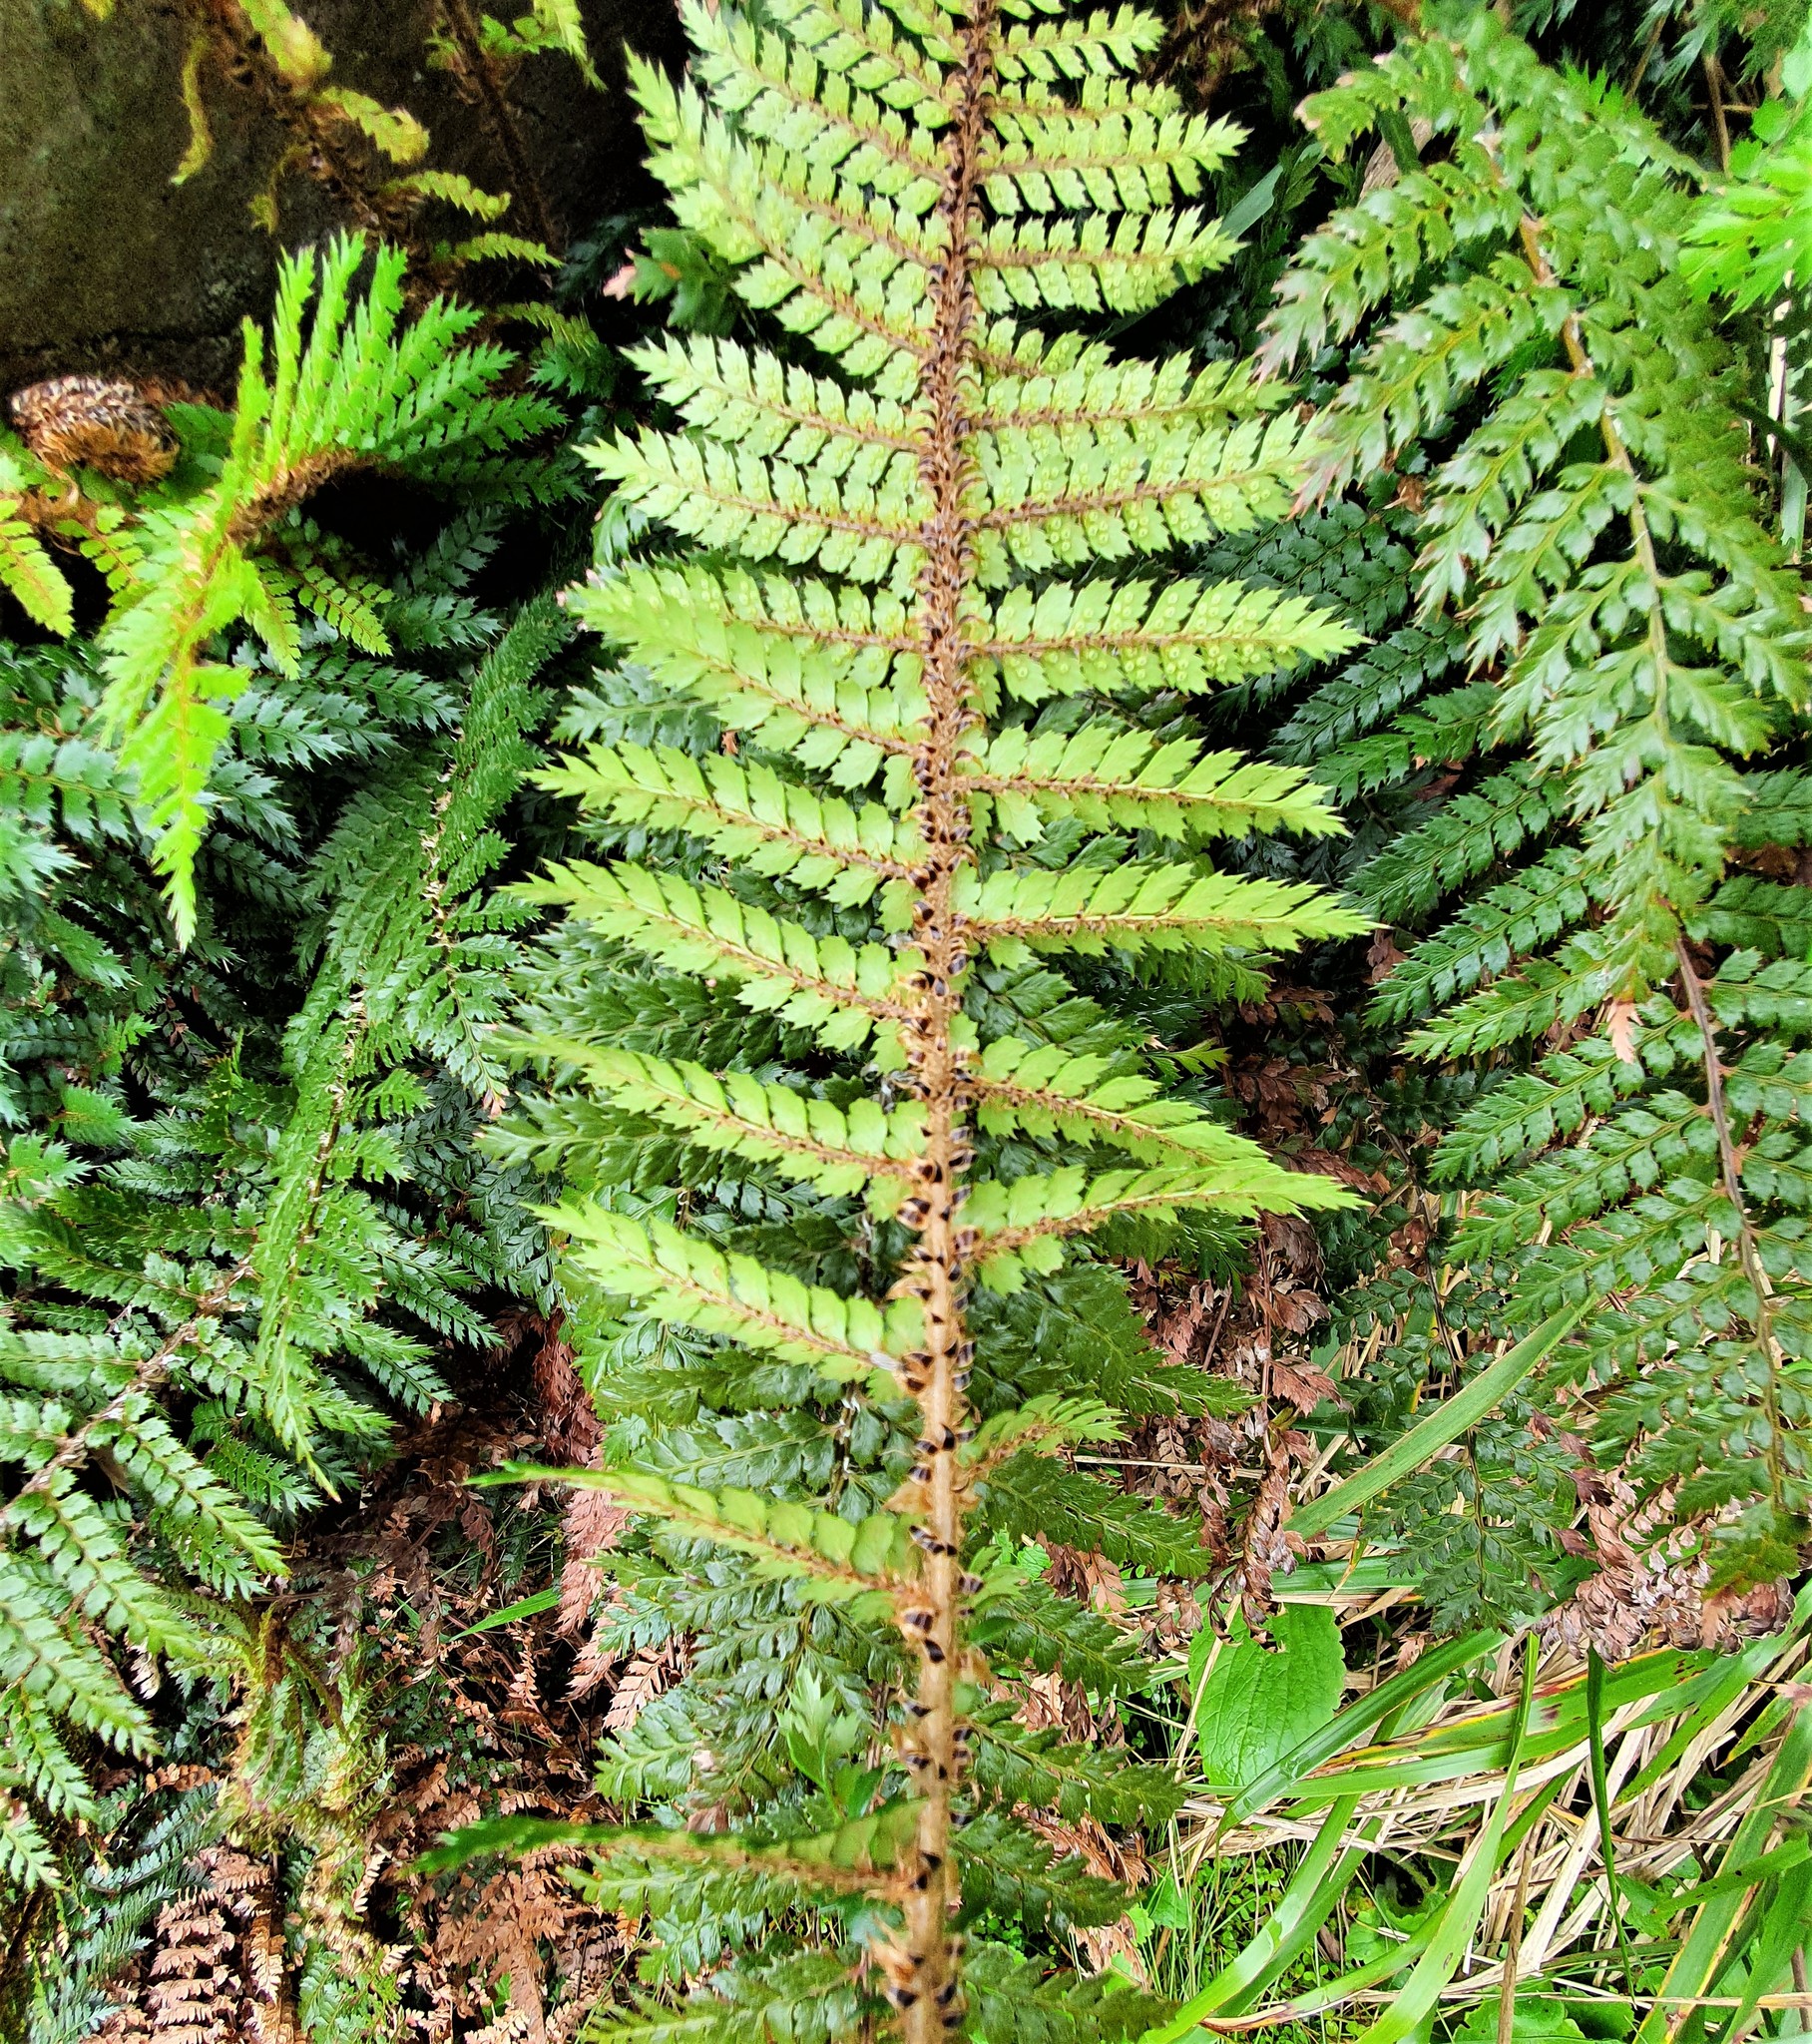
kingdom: Plantae
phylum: Tracheophyta
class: Polypodiopsida
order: Polypodiales
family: Dryopteridaceae
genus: Polystichum
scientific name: Polystichum vestitum
